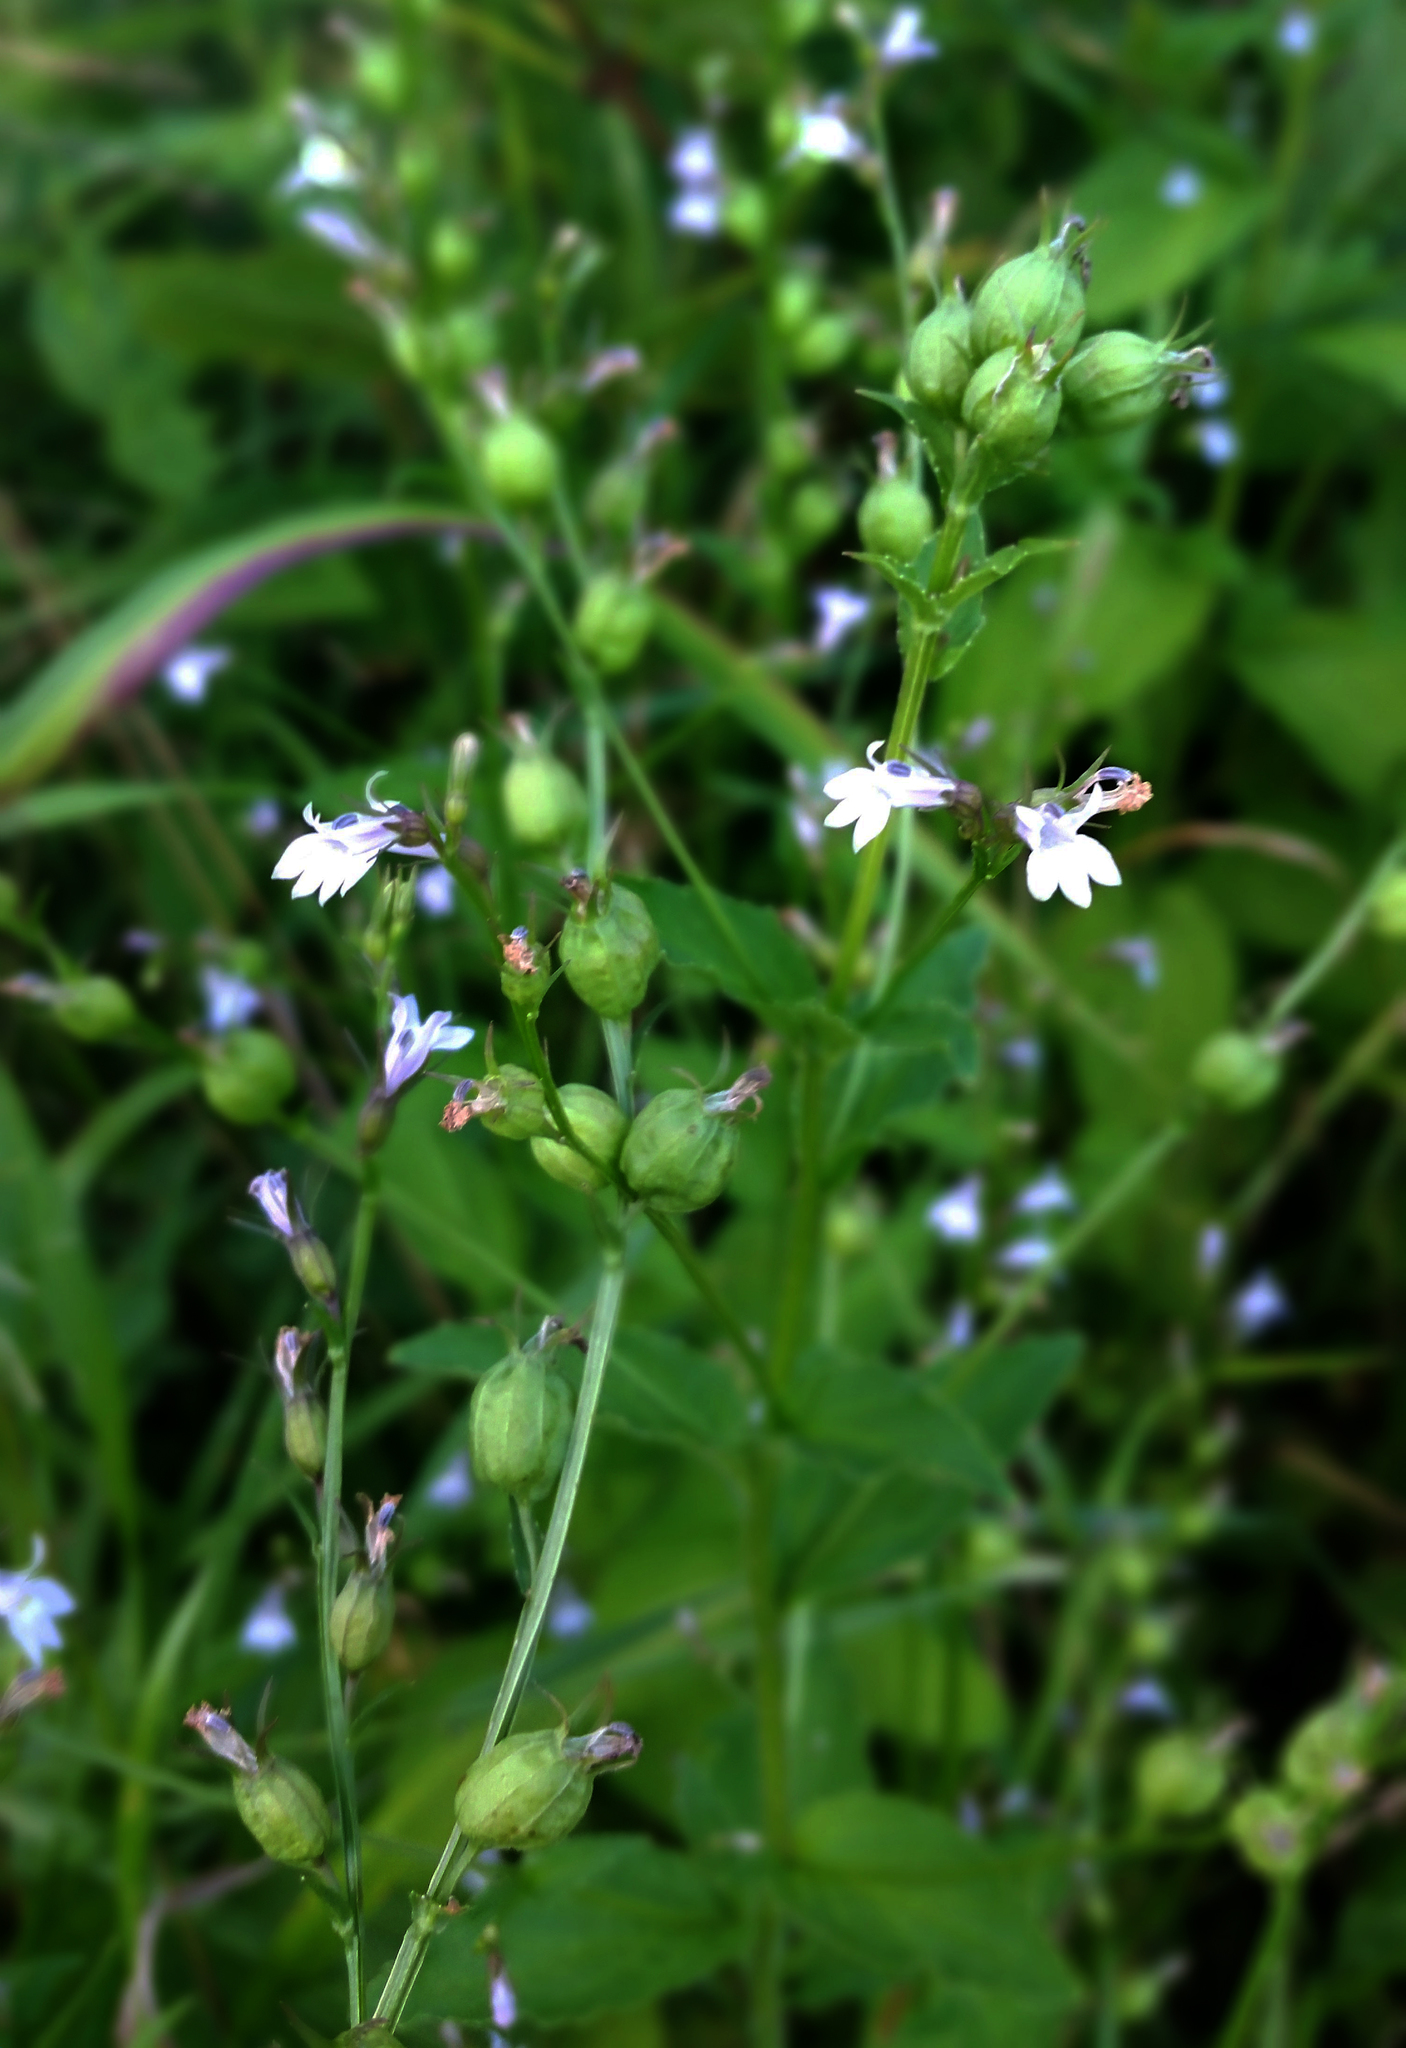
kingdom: Plantae
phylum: Tracheophyta
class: Magnoliopsida
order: Asterales
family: Campanulaceae
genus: Lobelia
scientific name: Lobelia inflata
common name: Indian tobacco
